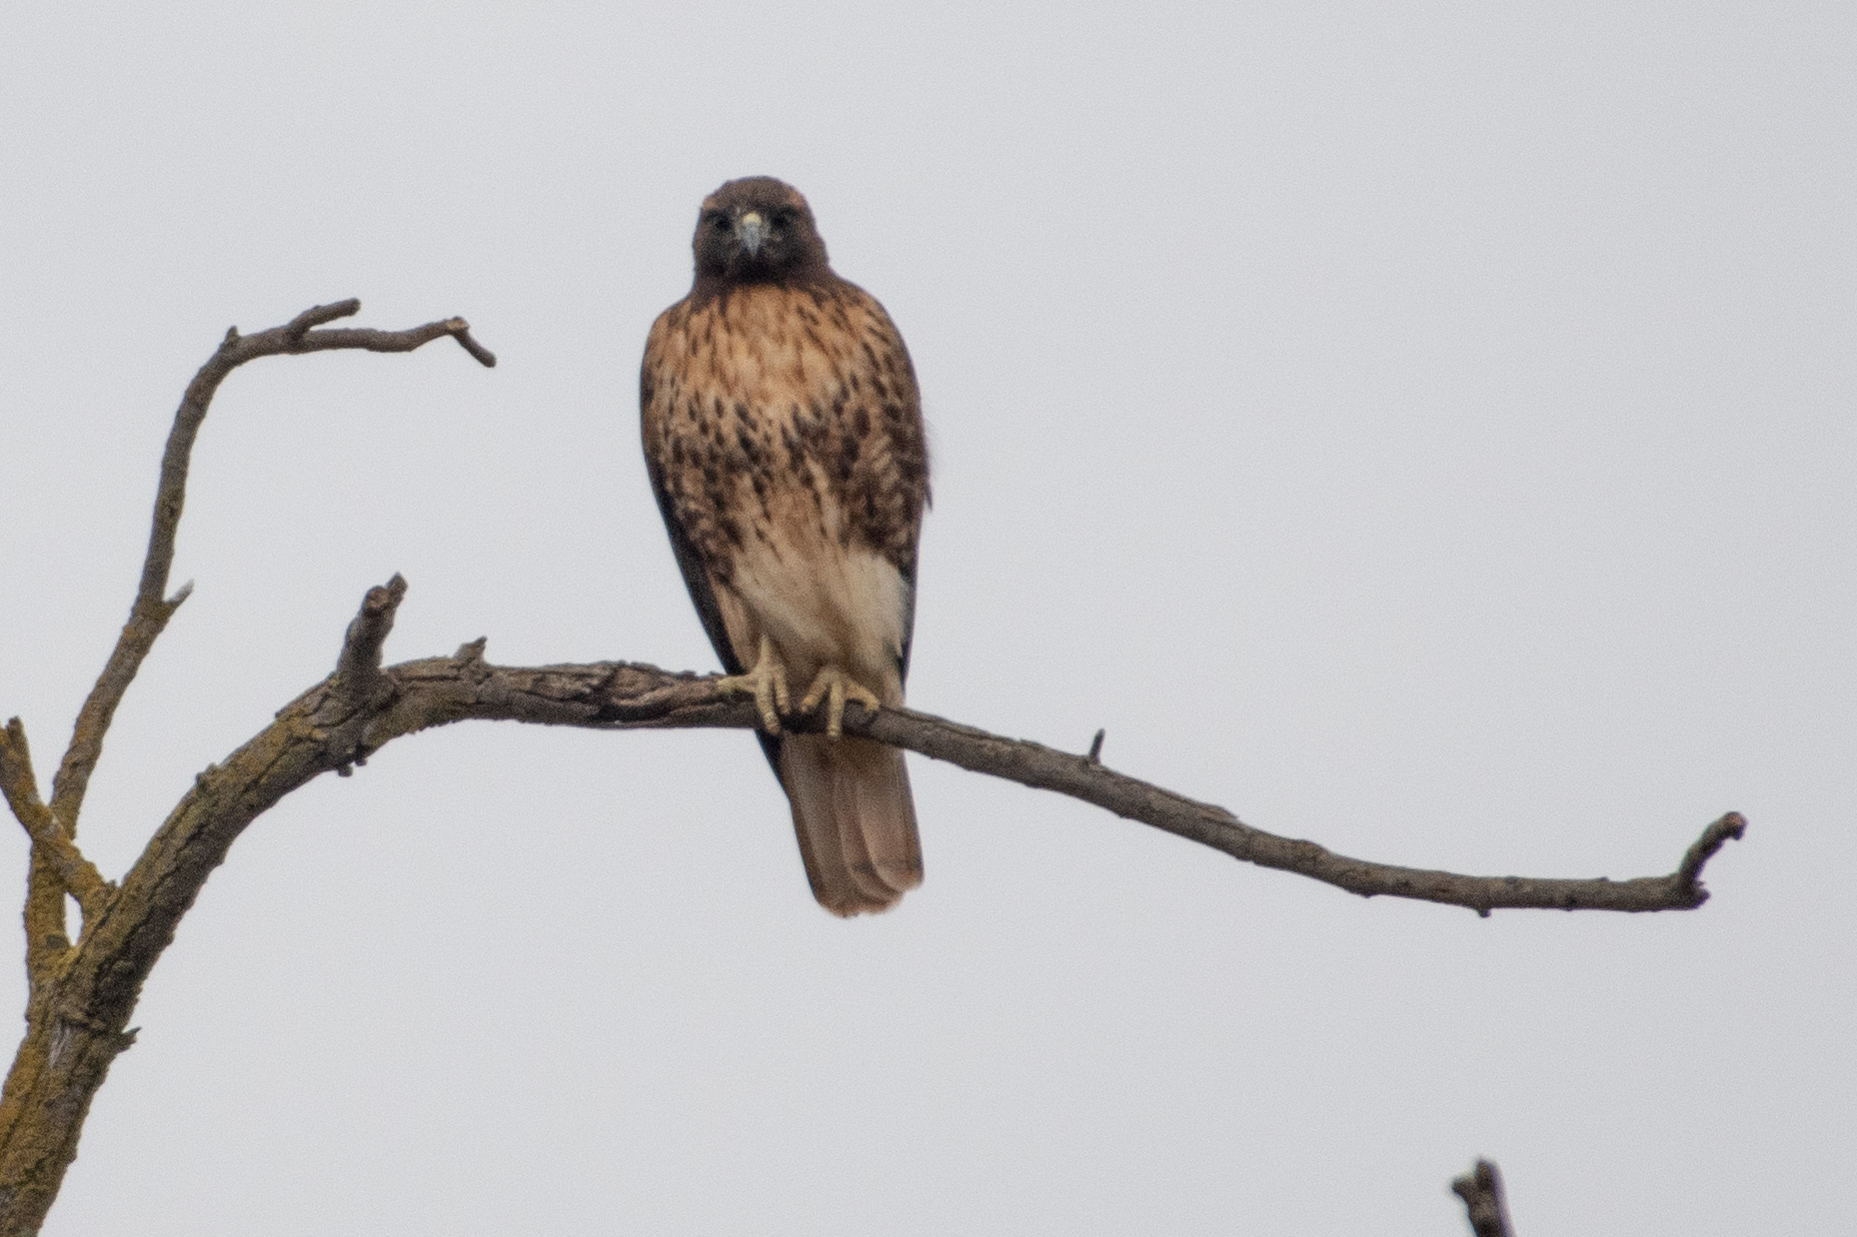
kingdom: Animalia
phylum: Chordata
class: Aves
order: Accipitriformes
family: Accipitridae
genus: Buteo
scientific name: Buteo jamaicensis
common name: Red-tailed hawk
